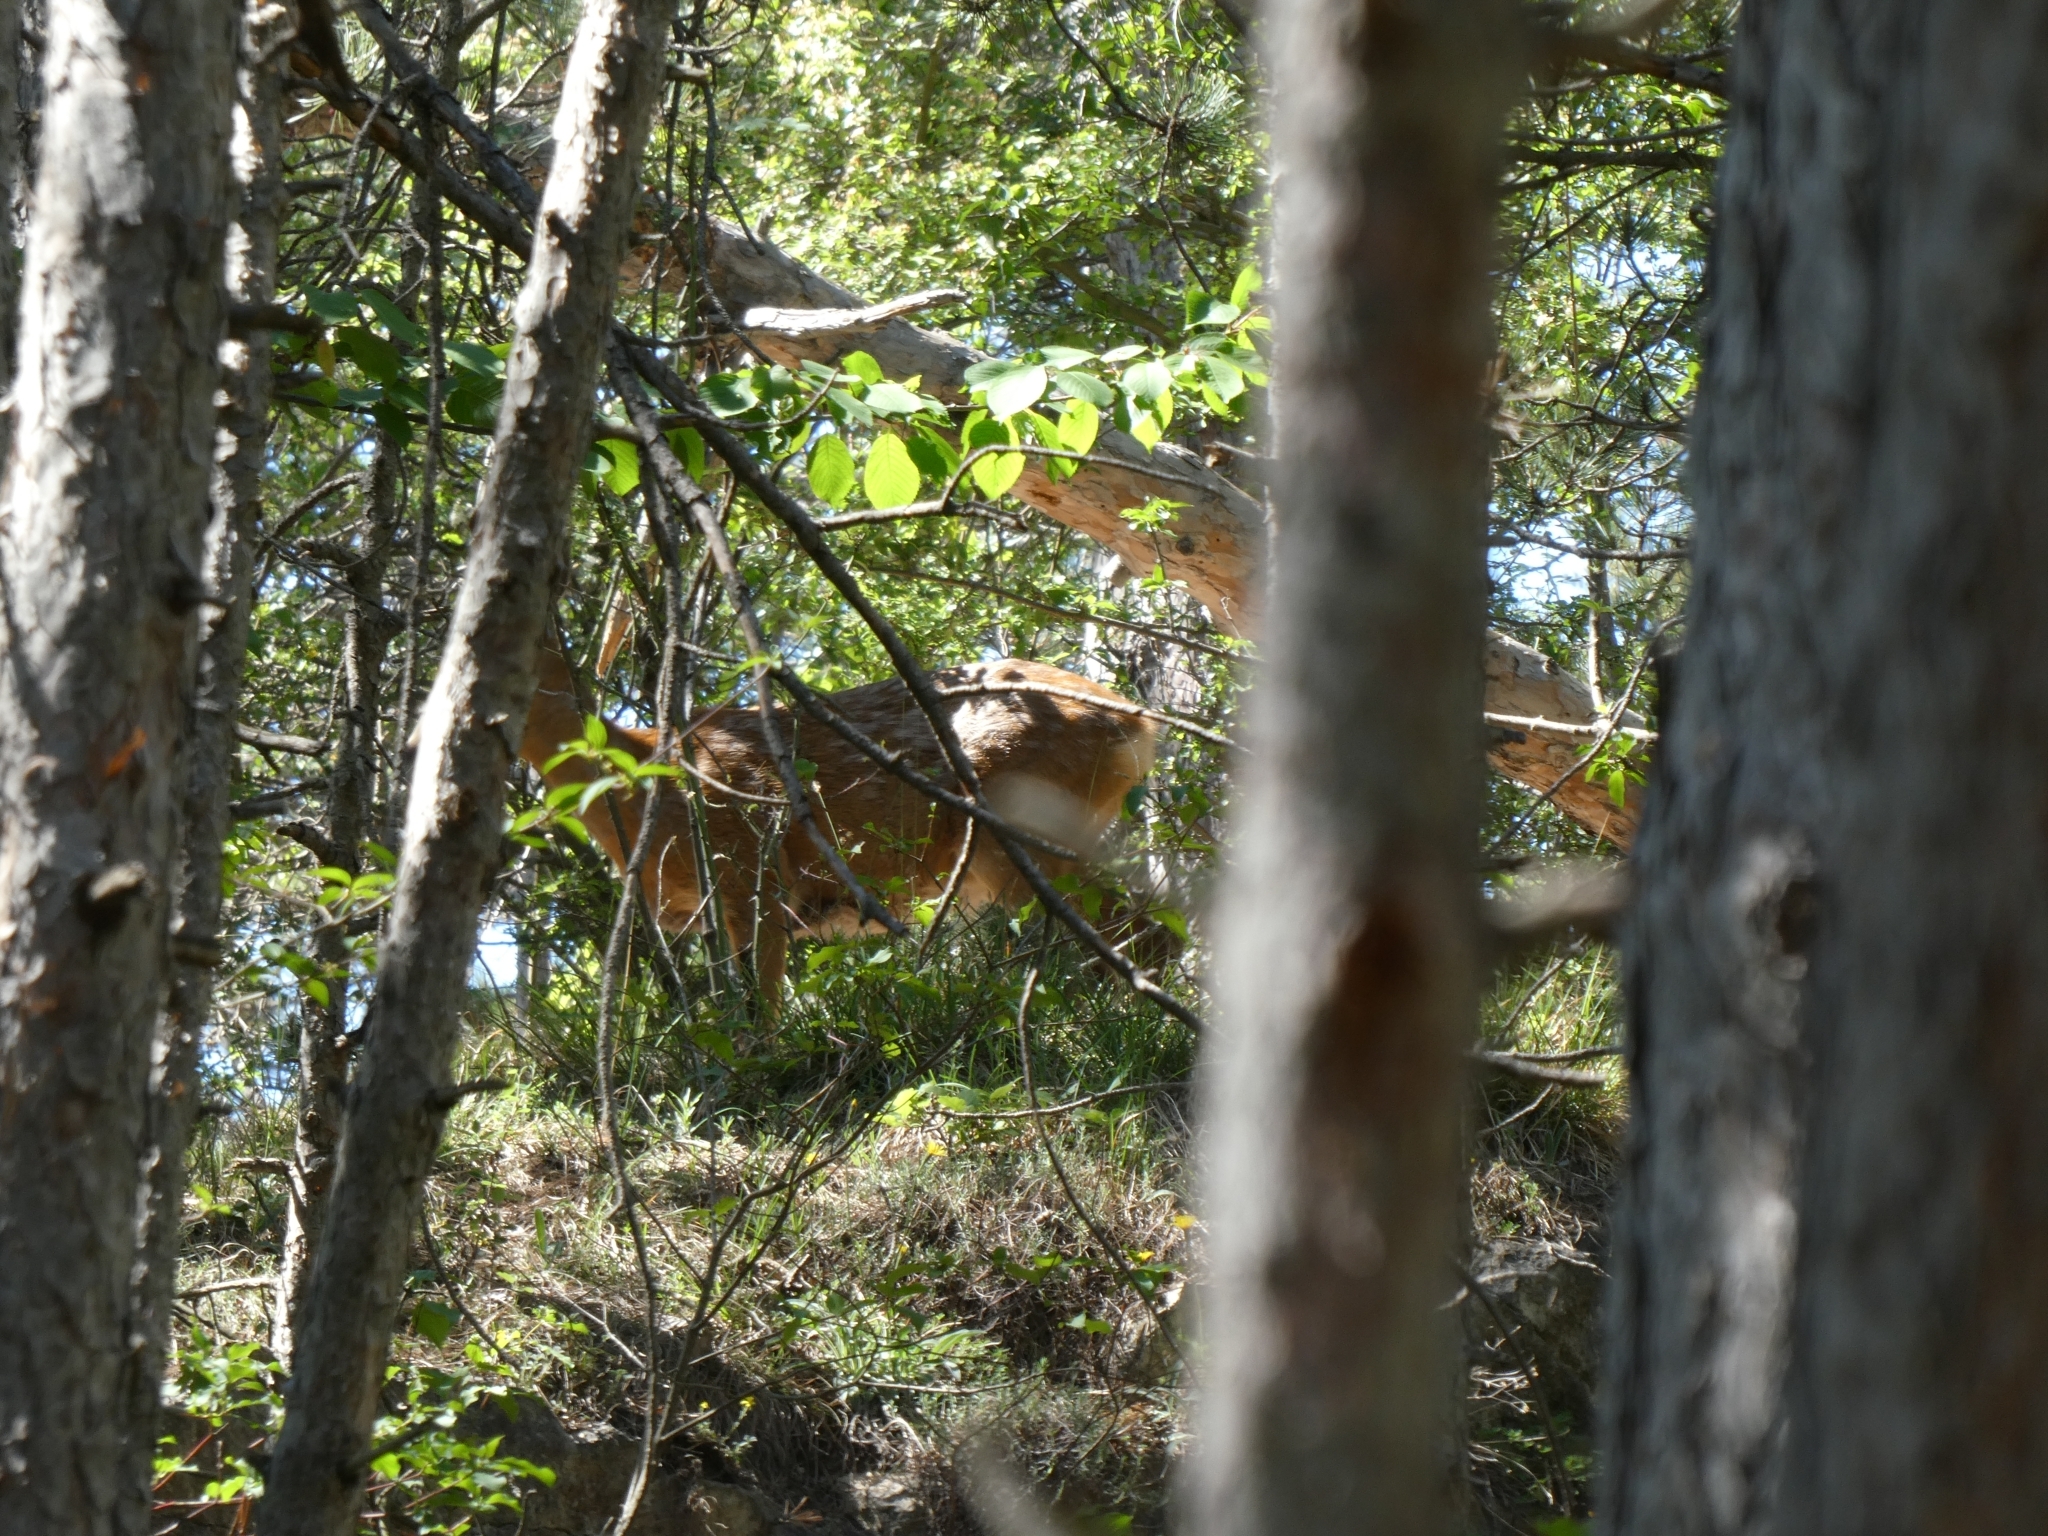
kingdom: Animalia
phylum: Chordata
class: Mammalia
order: Artiodactyla
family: Cervidae
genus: Capreolus
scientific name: Capreolus capreolus
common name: Western roe deer
